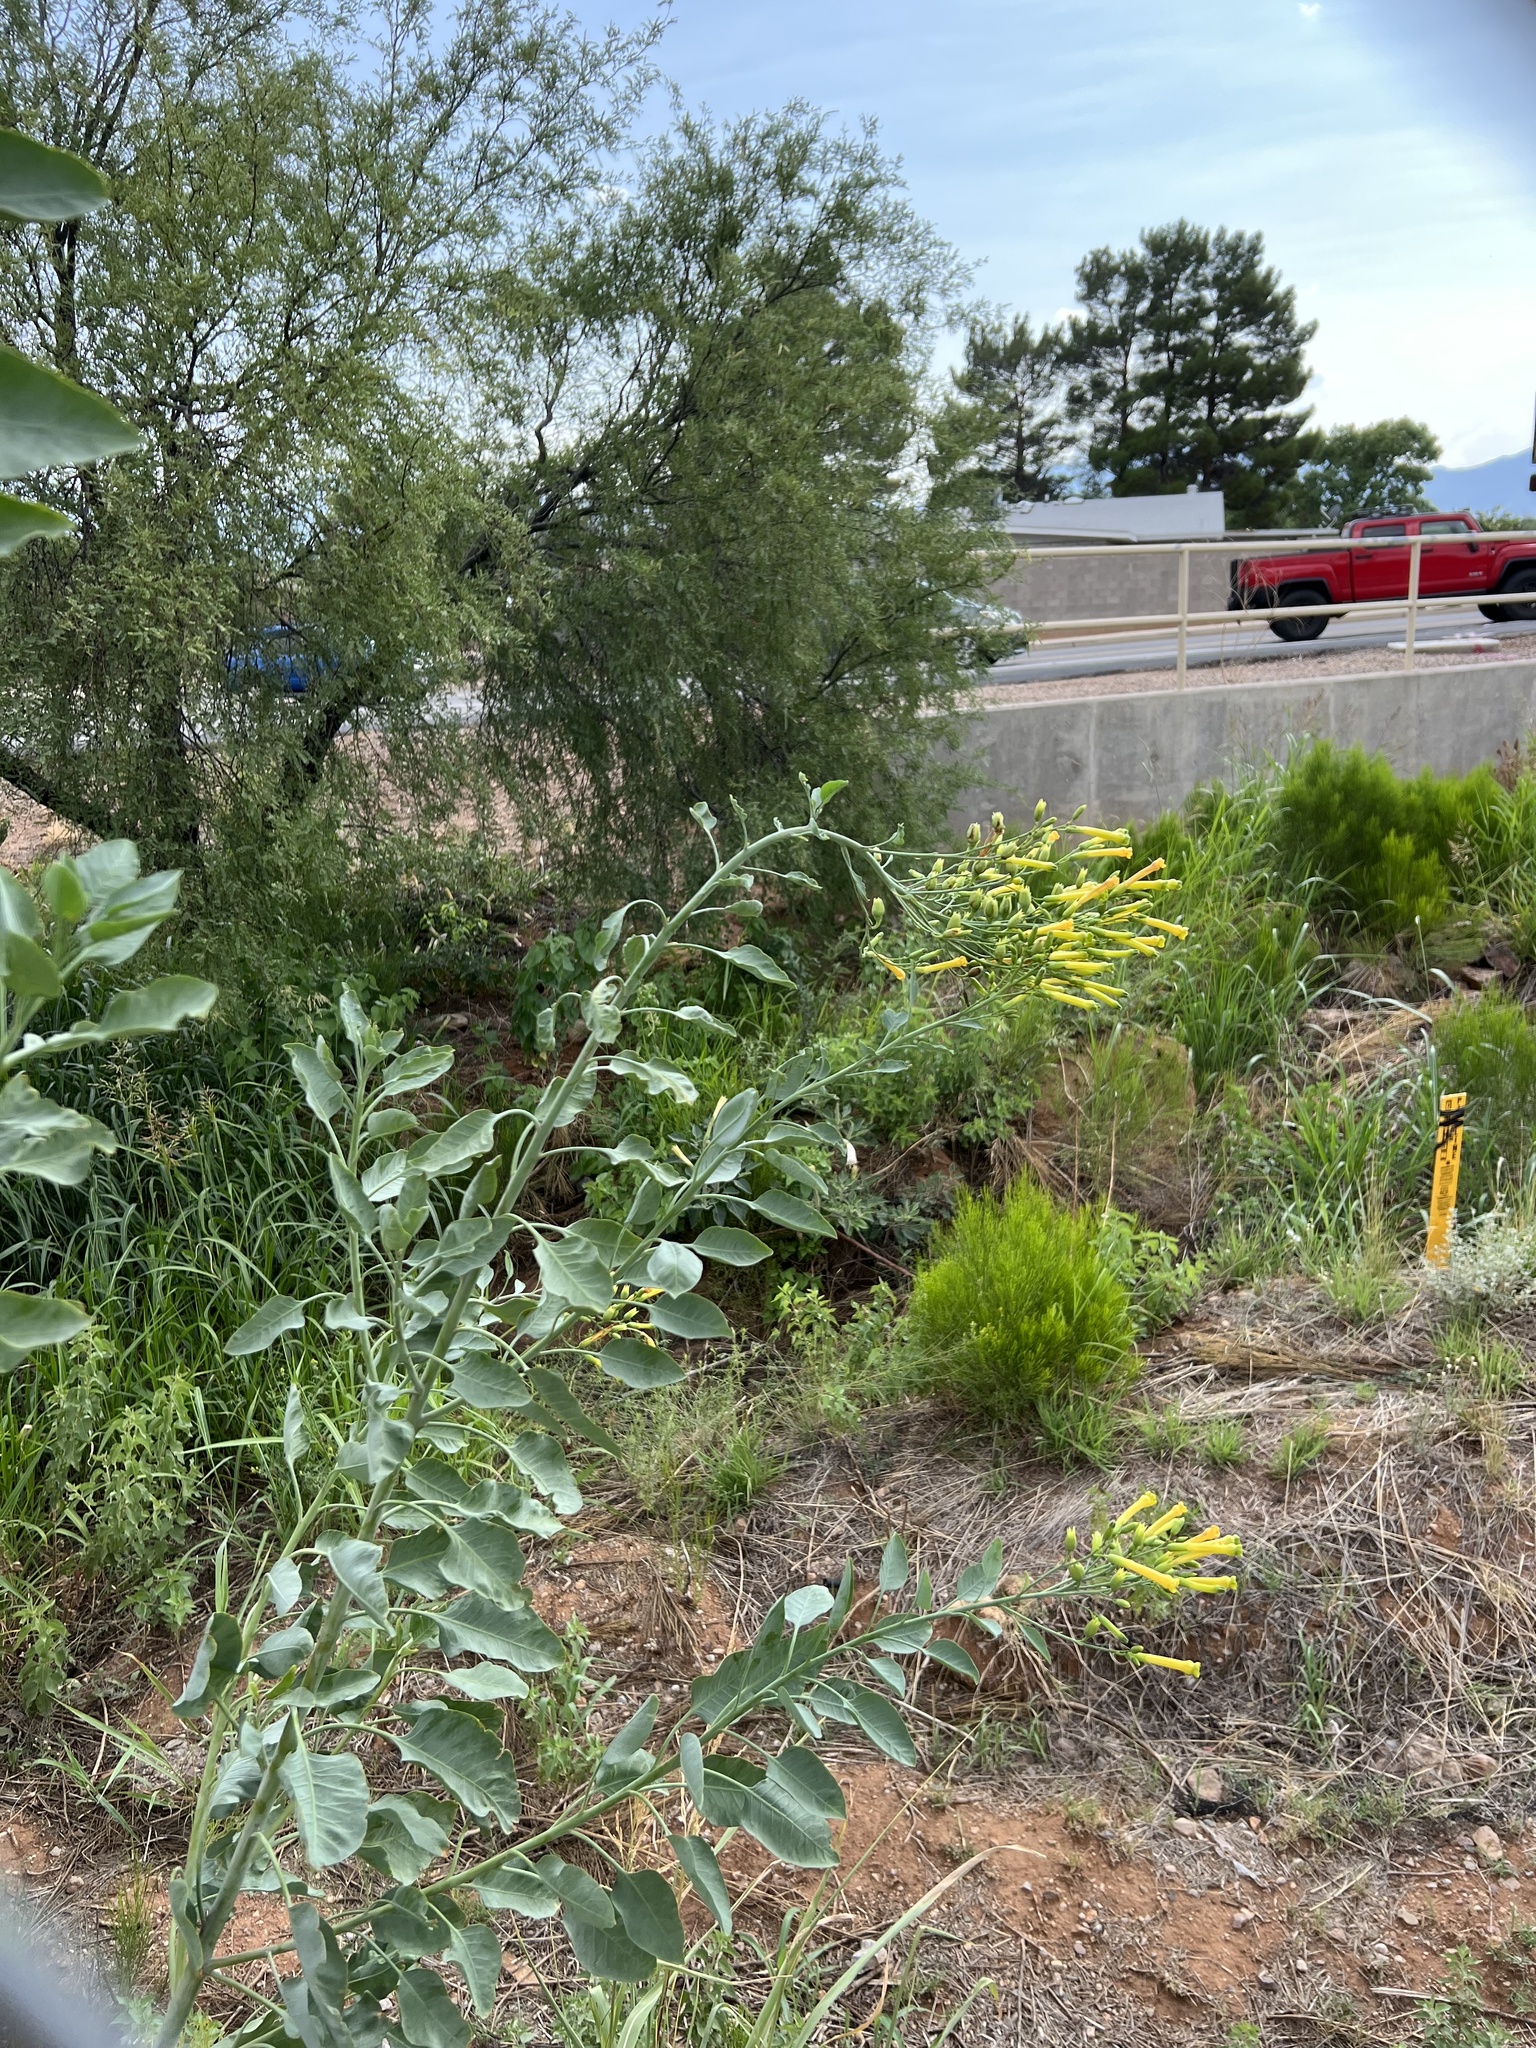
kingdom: Plantae
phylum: Tracheophyta
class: Magnoliopsida
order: Solanales
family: Solanaceae
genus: Nicotiana
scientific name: Nicotiana glauca
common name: Tree tobacco
